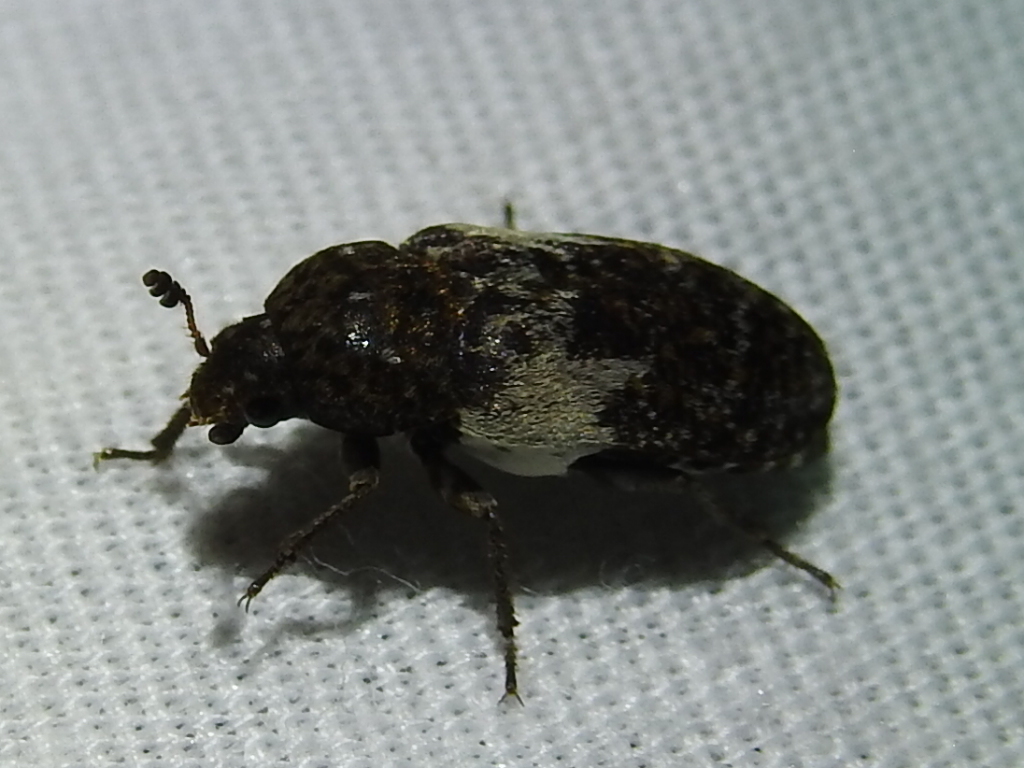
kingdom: Animalia
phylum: Arthropoda
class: Insecta
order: Coleoptera
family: Dermestidae
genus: Dermestes
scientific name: Dermestes marmoratus
